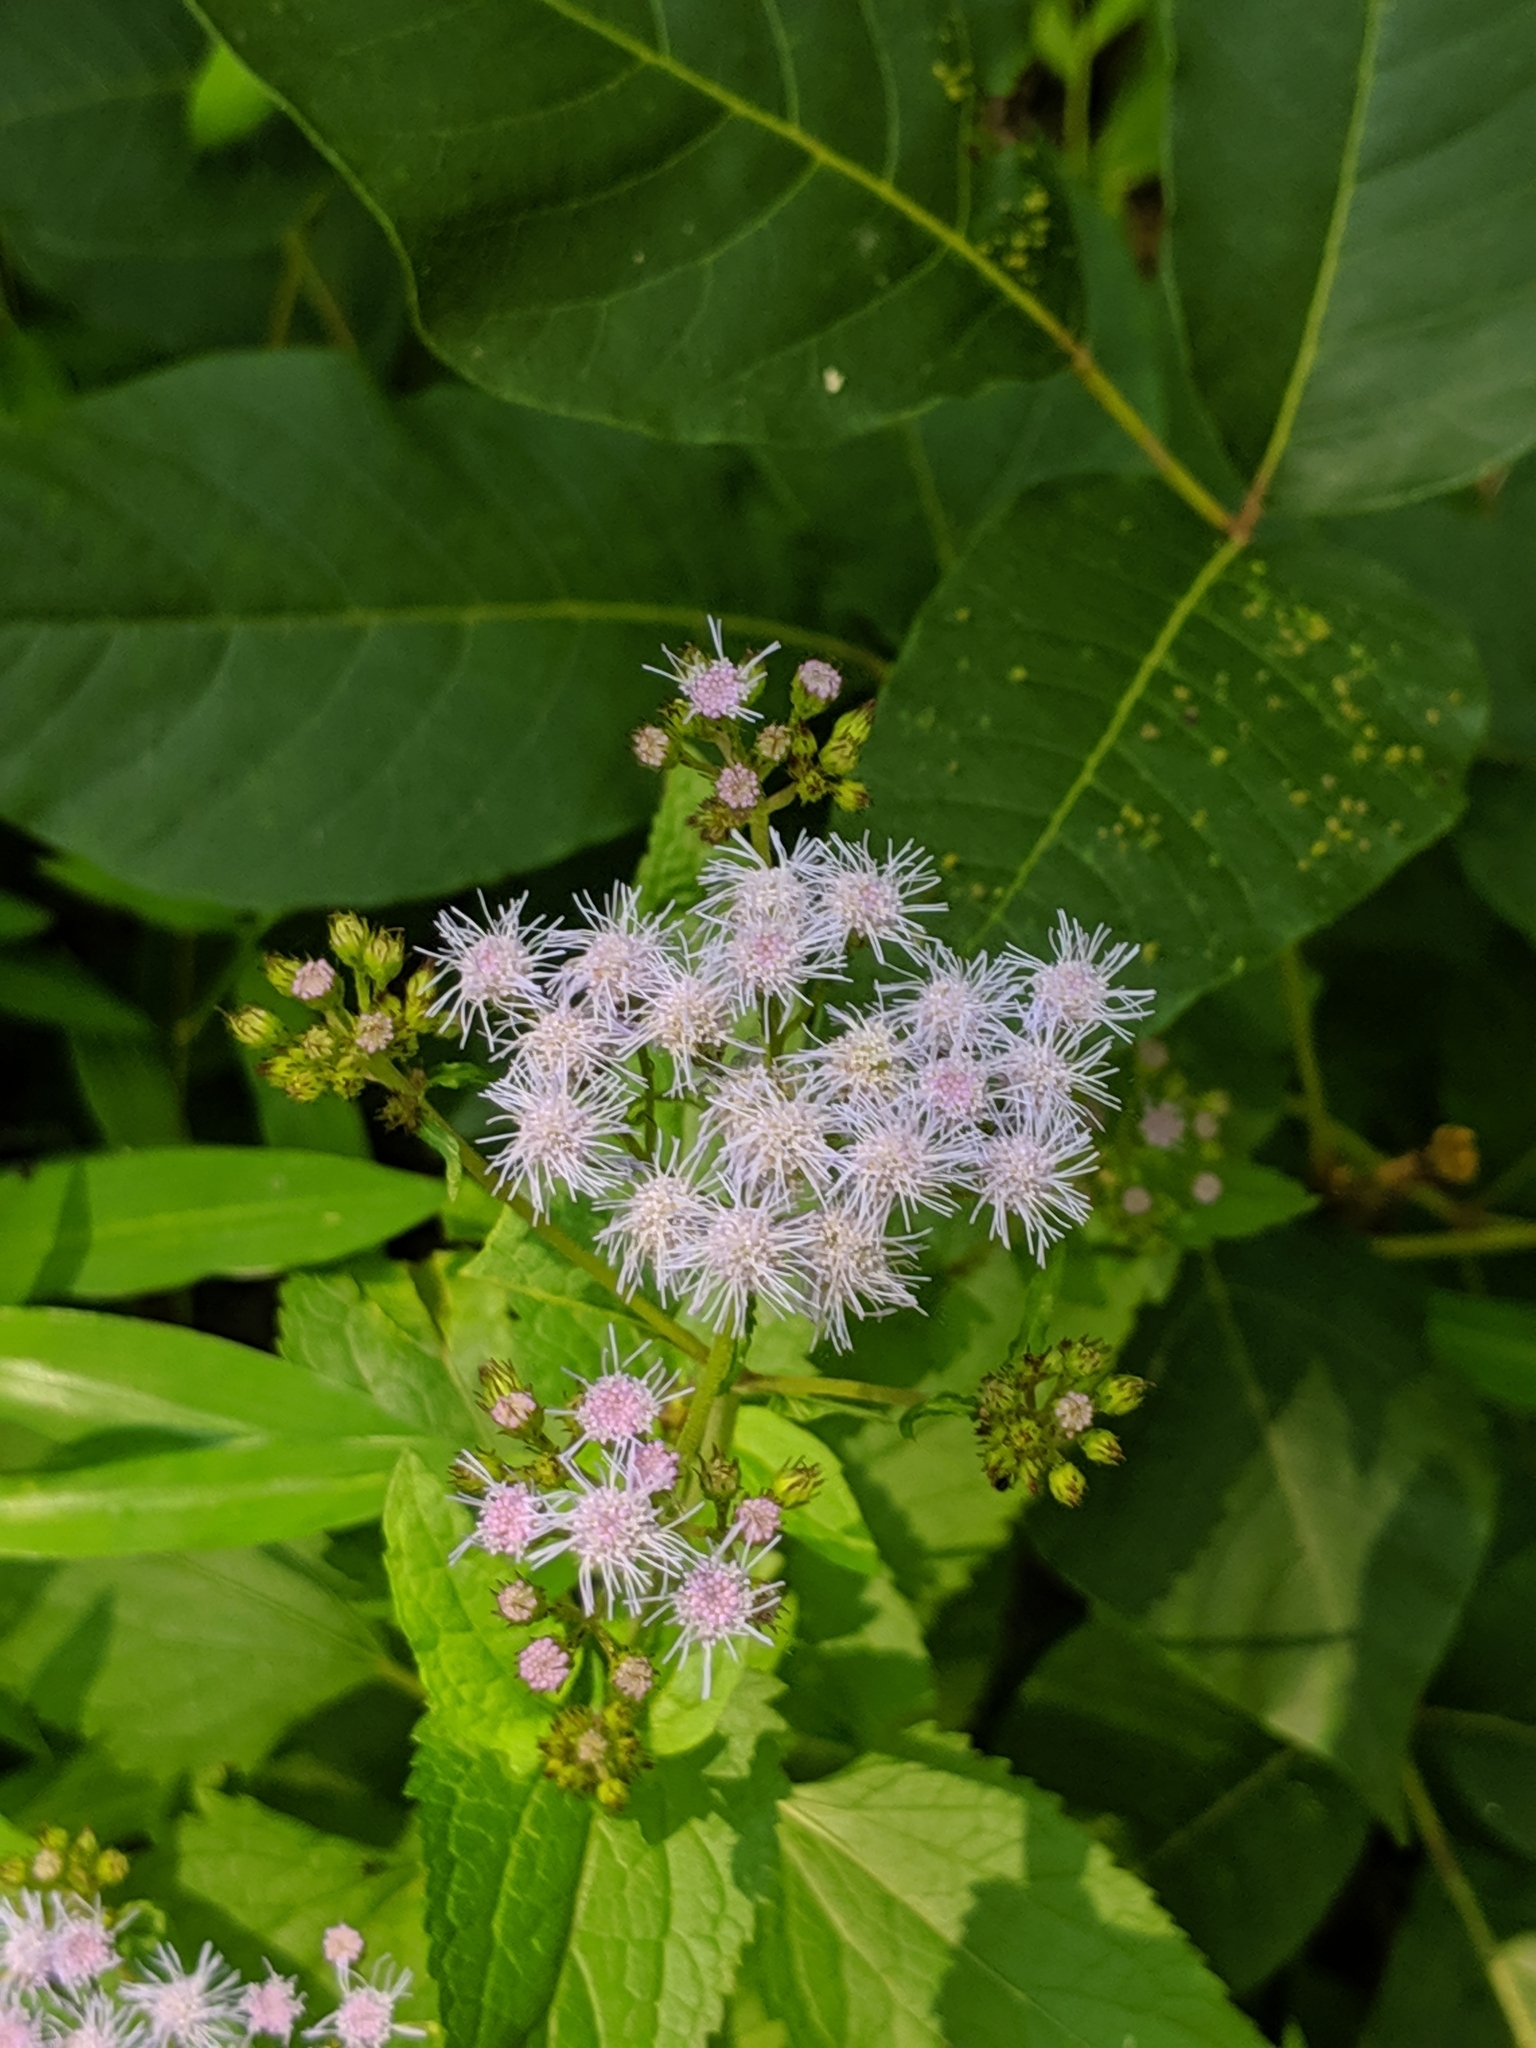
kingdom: Plantae
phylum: Tracheophyta
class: Magnoliopsida
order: Asterales
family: Asteraceae
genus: Conoclinium
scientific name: Conoclinium coelestinum
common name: Blue mistflower
